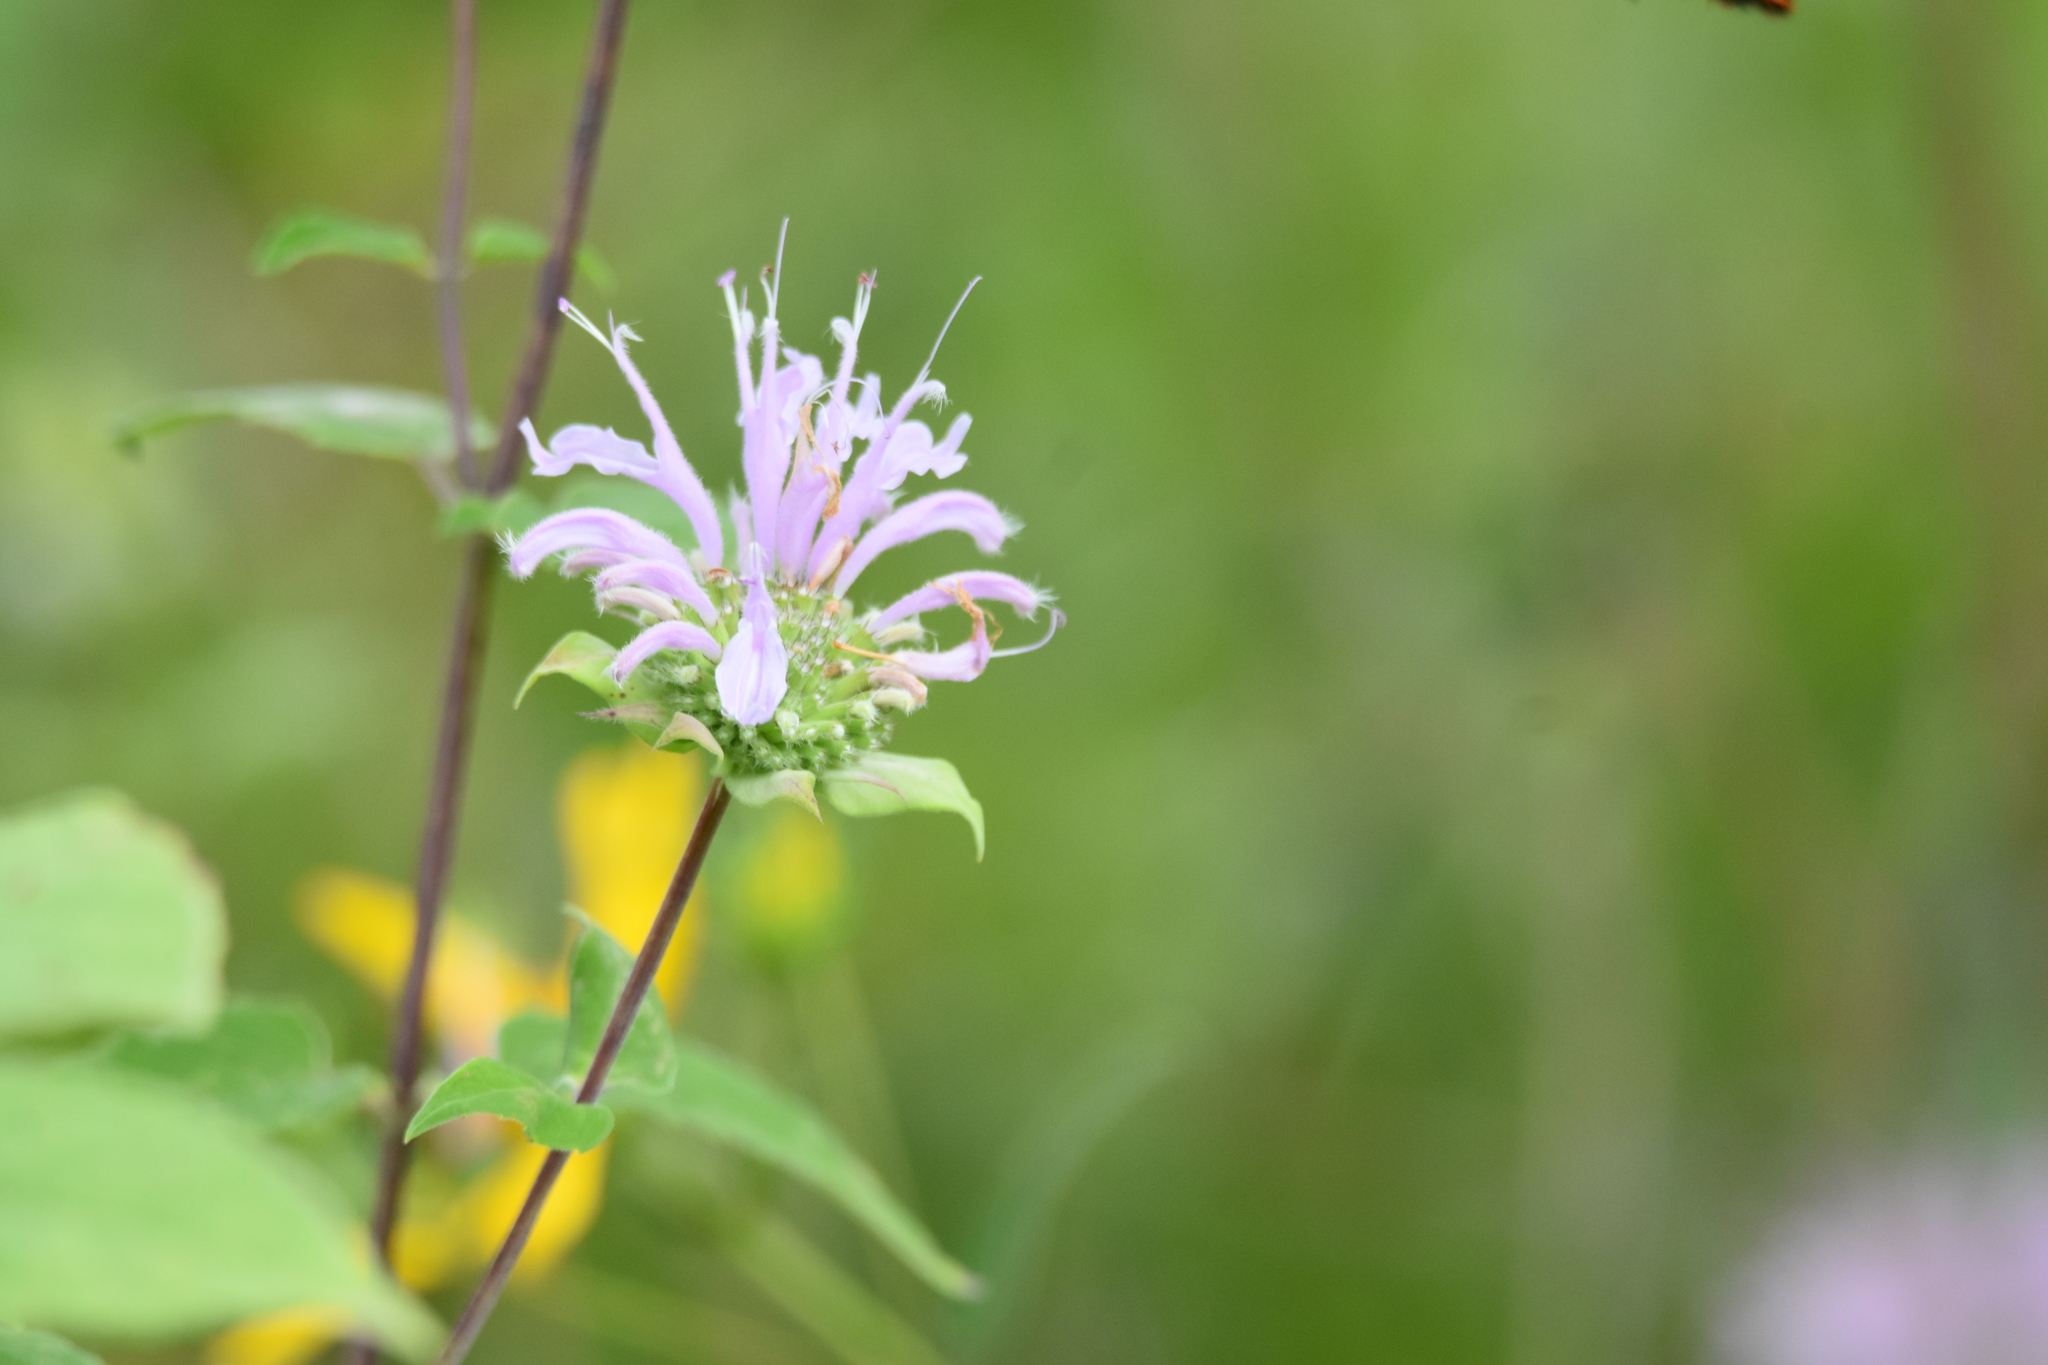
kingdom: Plantae
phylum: Tracheophyta
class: Magnoliopsida
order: Lamiales
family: Lamiaceae
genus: Monarda
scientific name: Monarda fistulosa
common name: Purple beebalm
